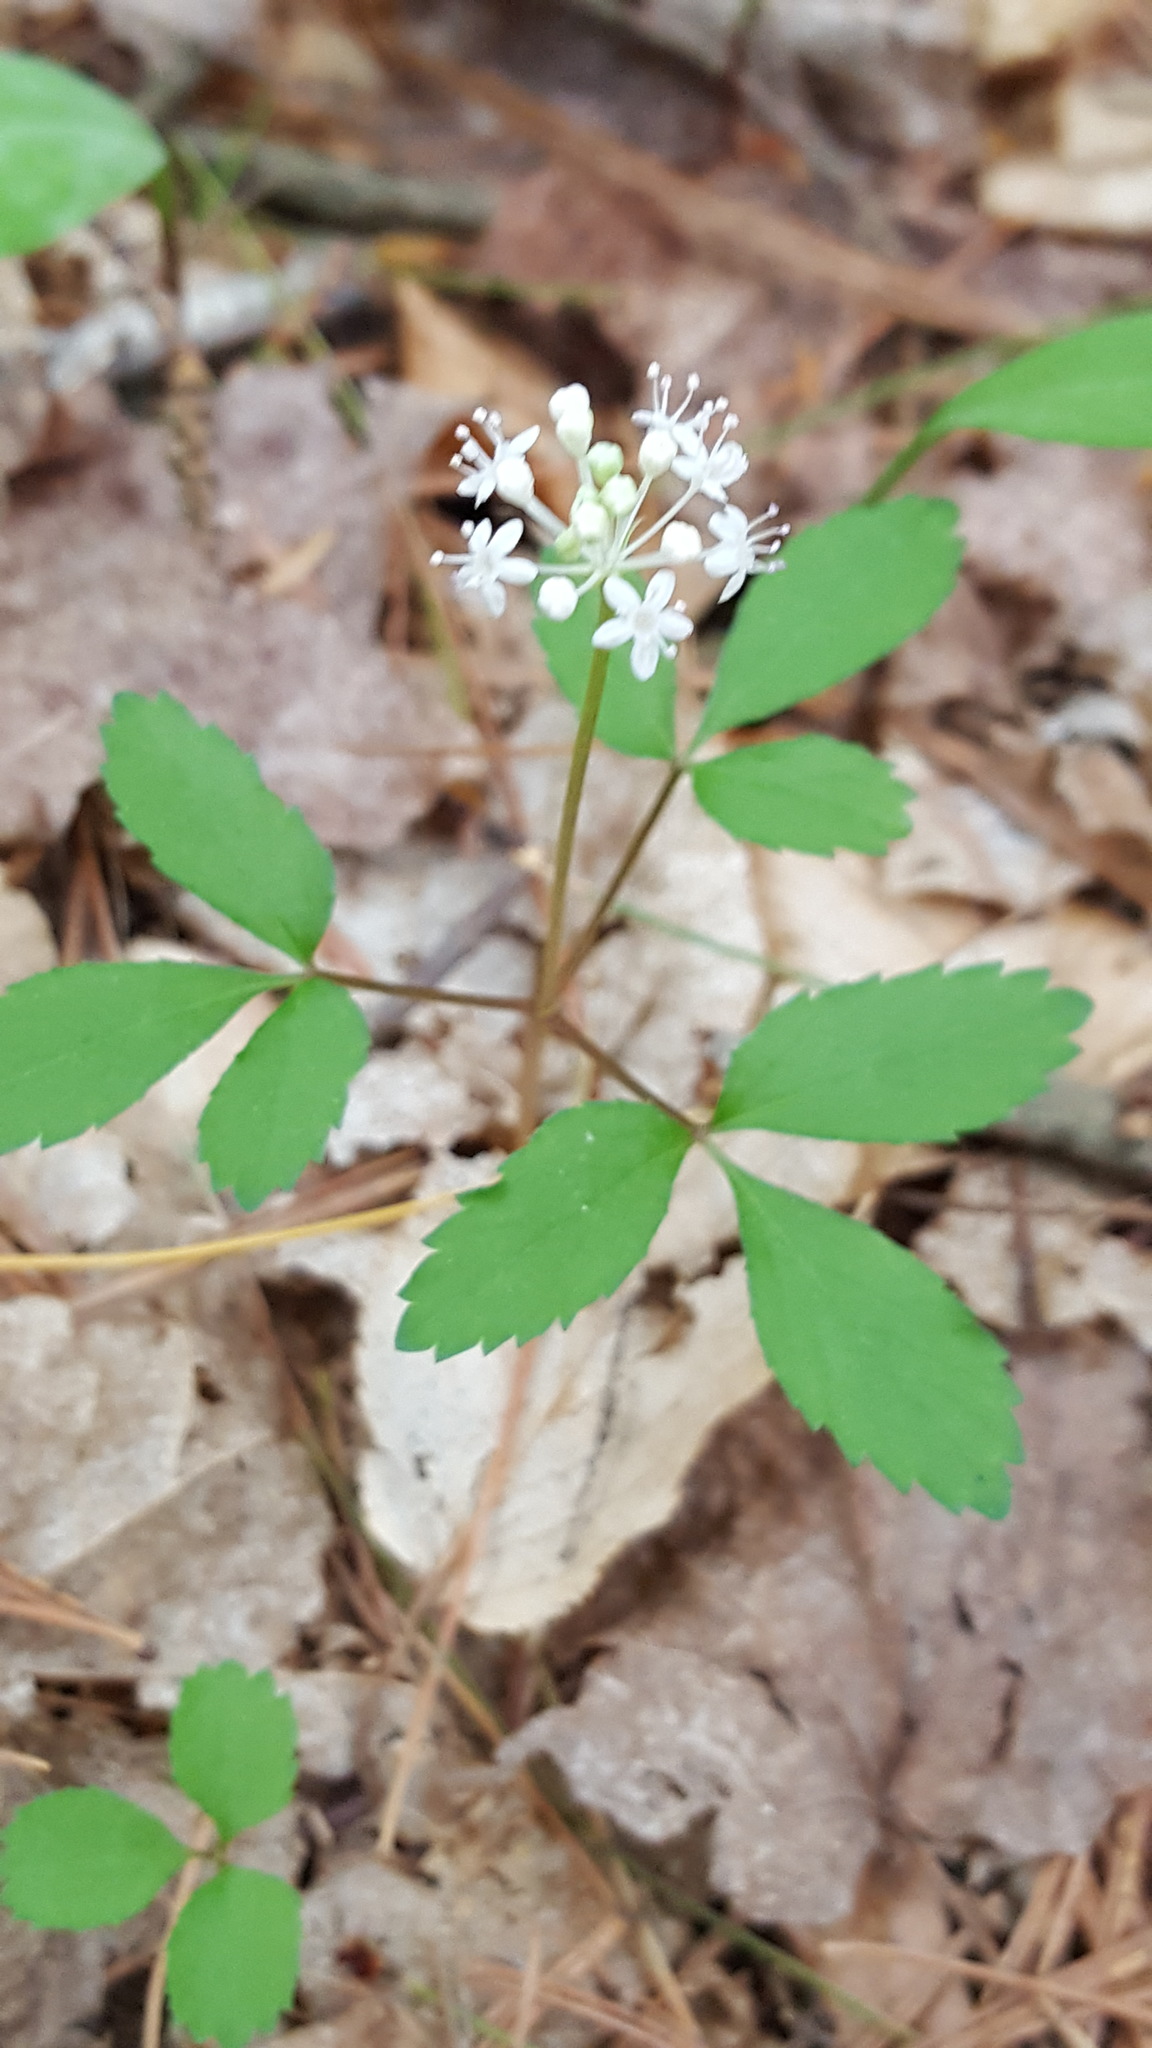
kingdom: Plantae
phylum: Tracheophyta
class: Magnoliopsida
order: Apiales
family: Araliaceae
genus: Panax
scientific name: Panax trifolius
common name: Dwarf ginseng
